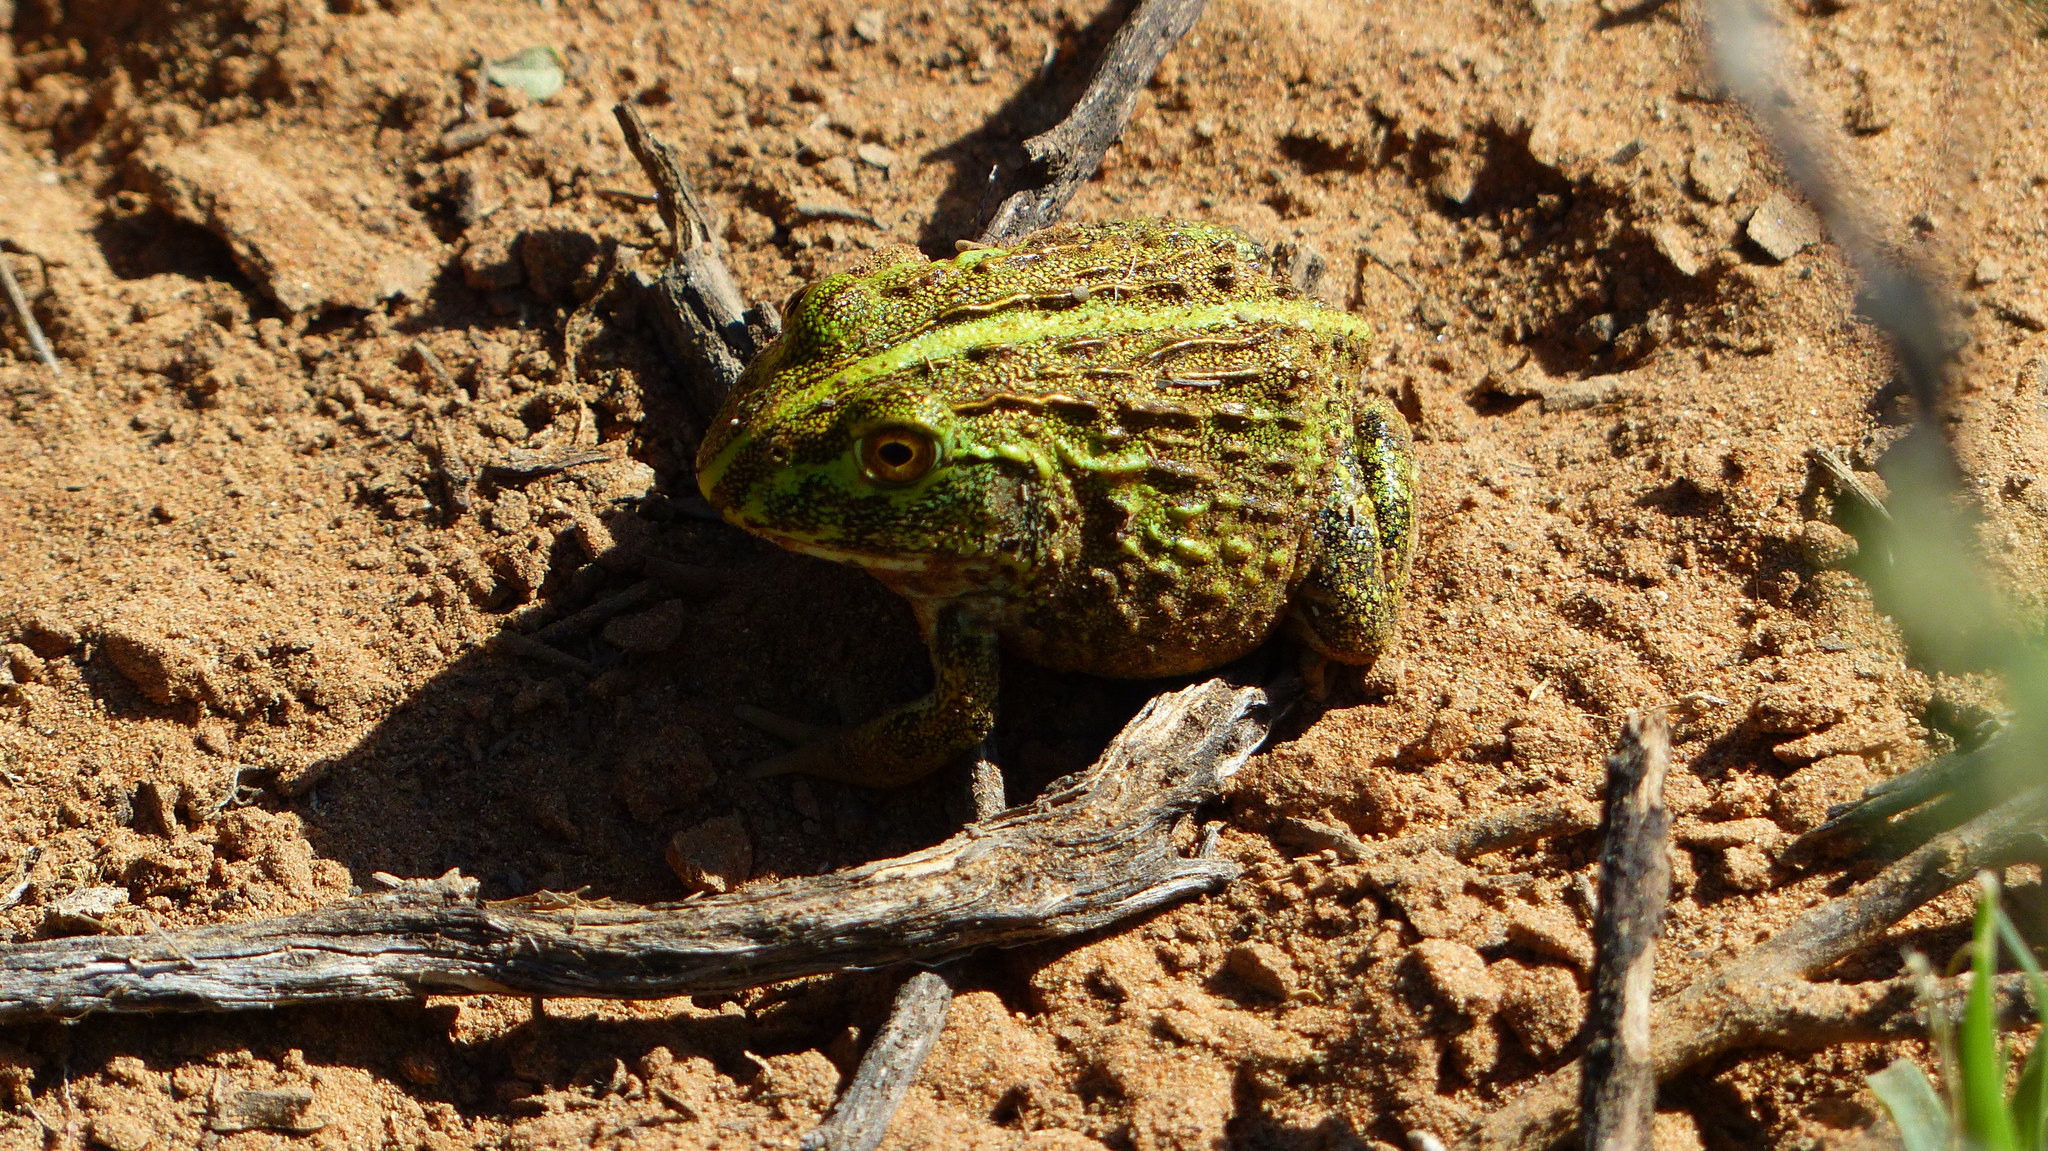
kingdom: Animalia
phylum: Chordata
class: Amphibia
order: Anura
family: Pyxicephalidae
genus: Pyxicephalus
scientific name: Pyxicephalus adspersus
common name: African bullfrog
